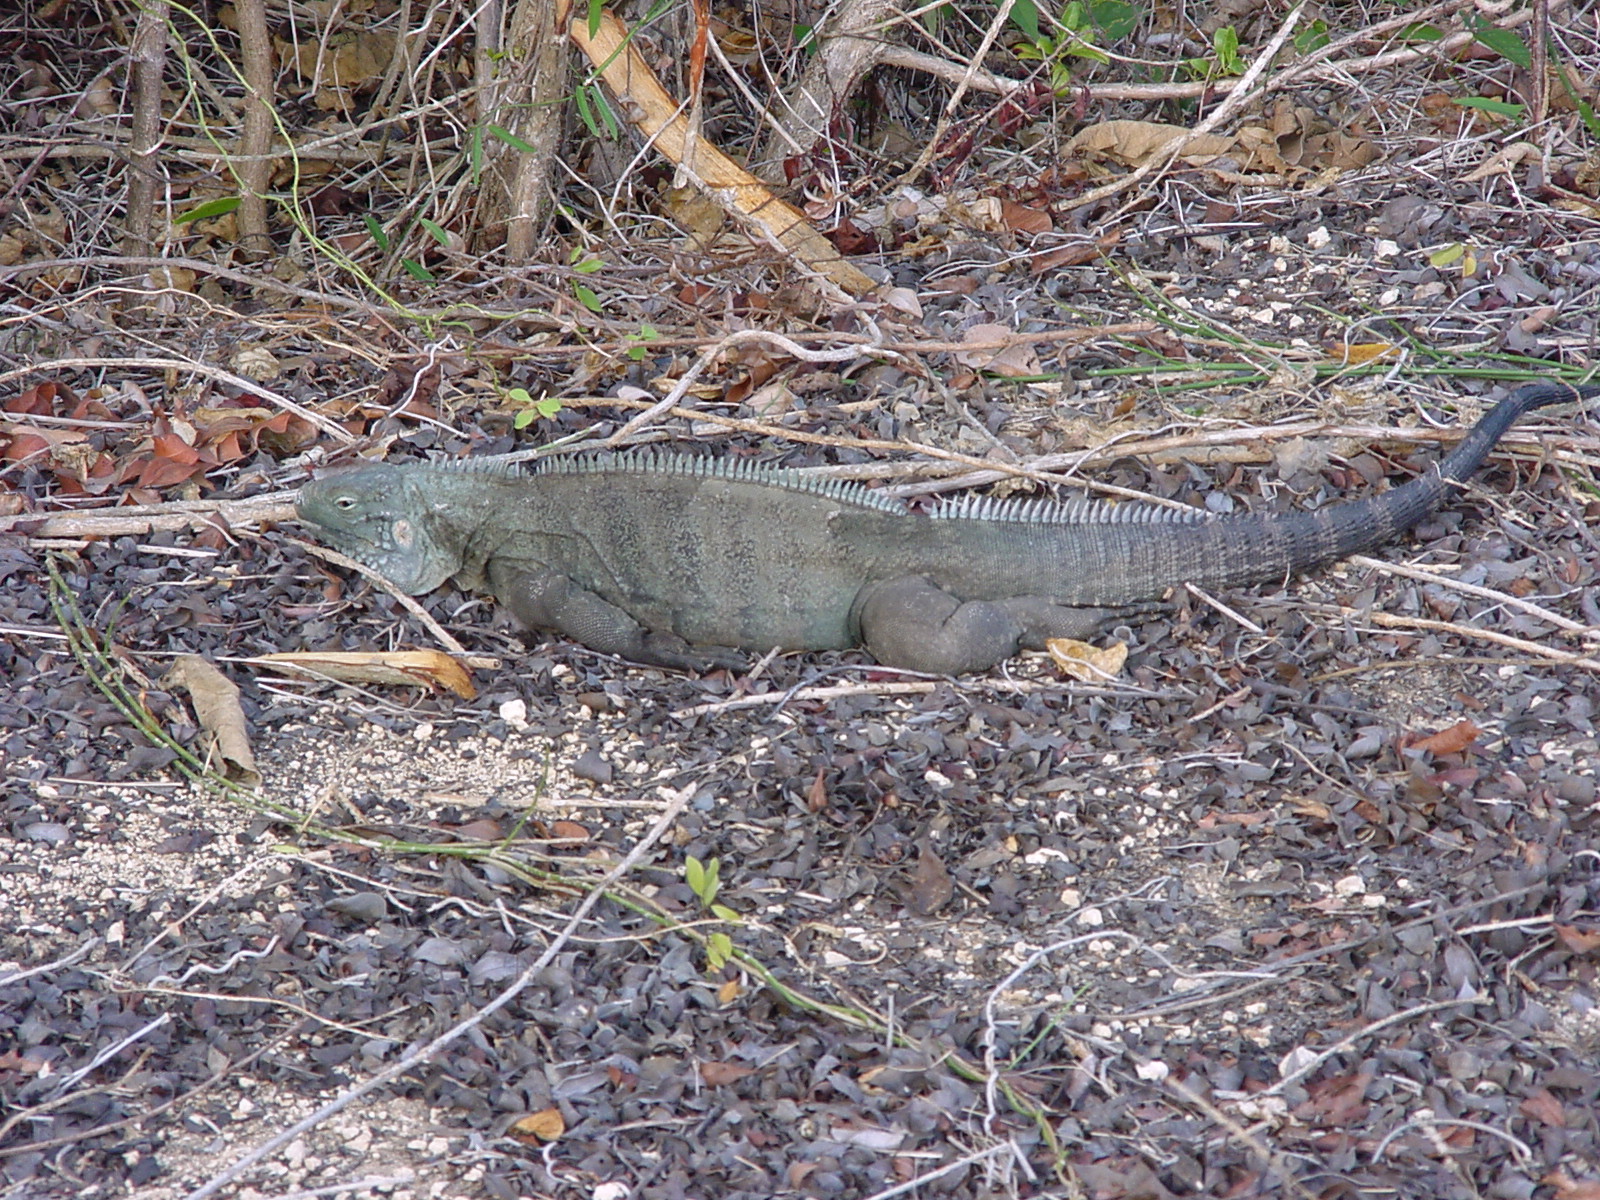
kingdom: Animalia
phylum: Chordata
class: Squamata
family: Iguanidae
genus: Cyclura
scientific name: Cyclura lewisi
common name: Grand cayman blue iguana
